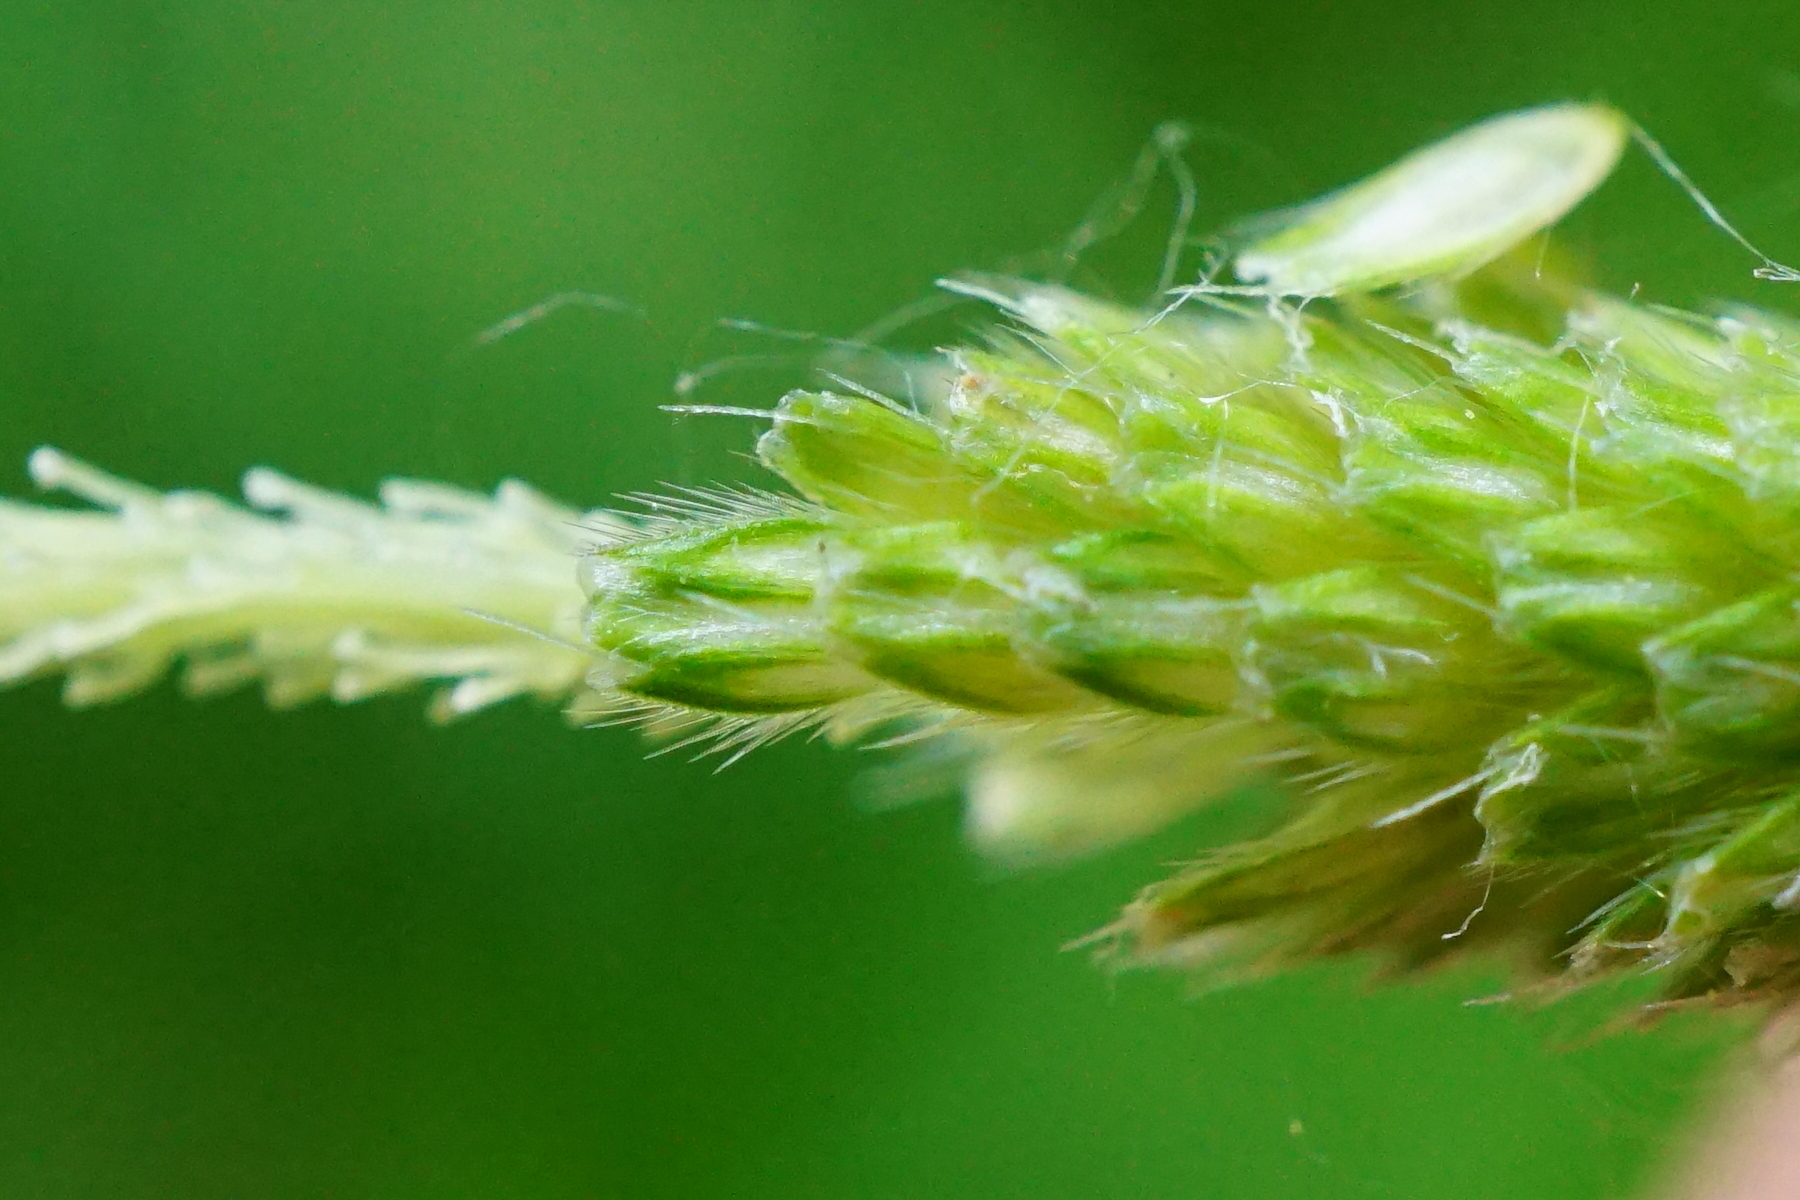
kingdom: Plantae
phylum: Tracheophyta
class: Liliopsida
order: Poales
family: Poaceae
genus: Alopecurus
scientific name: Alopecurus aequalis
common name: Orange foxtail
